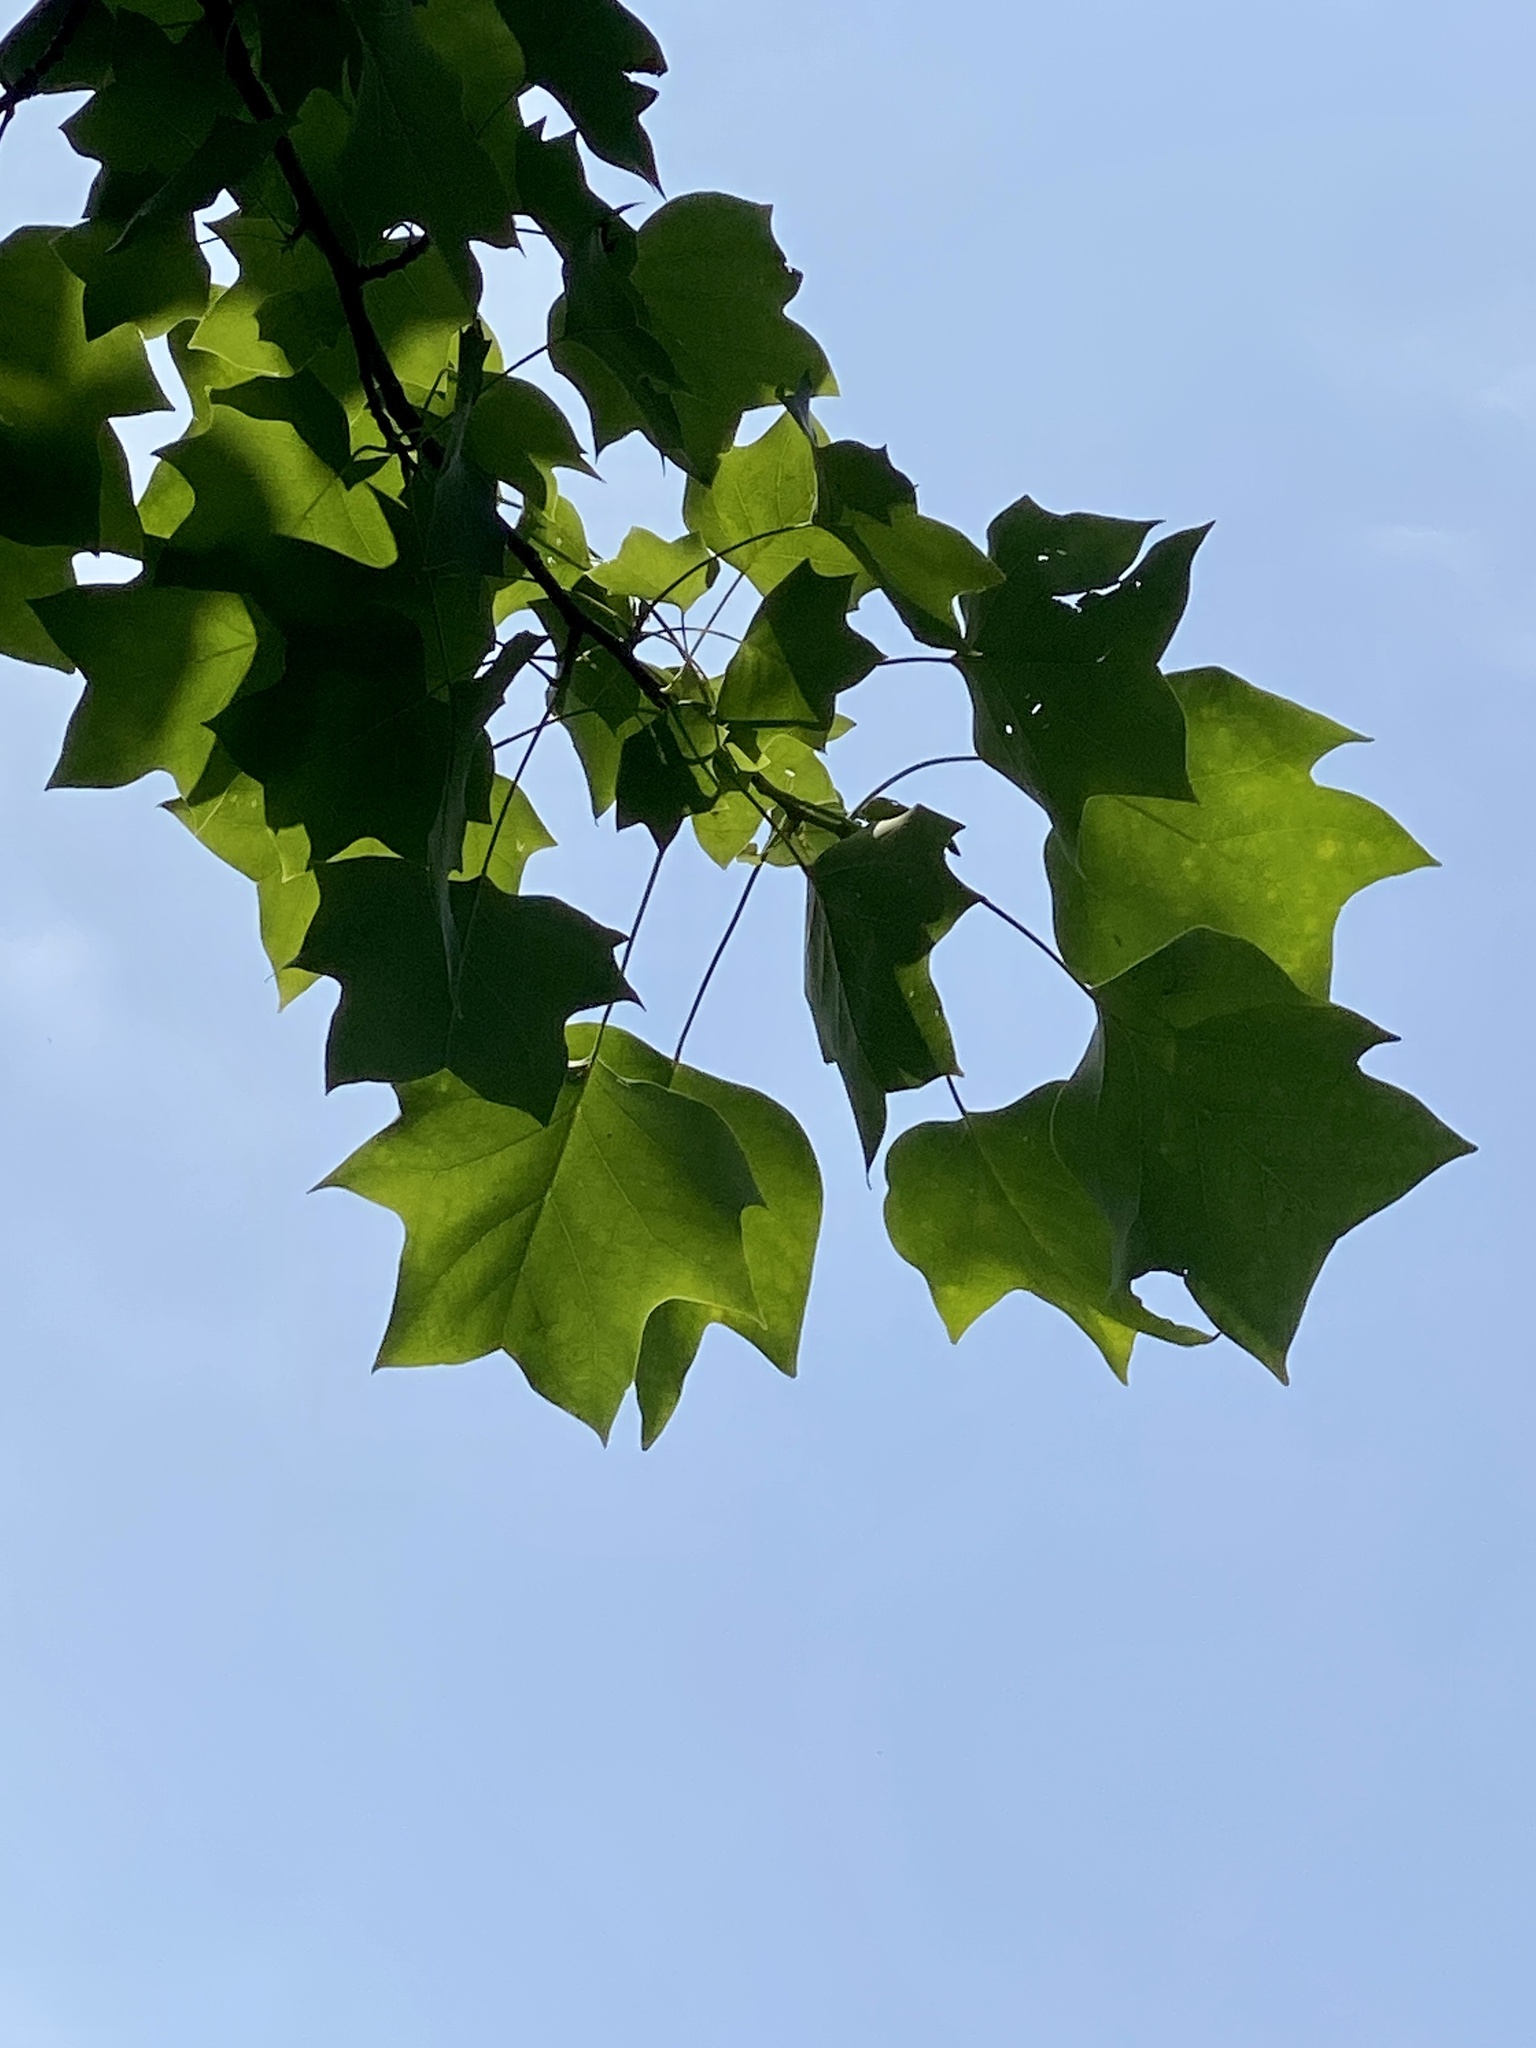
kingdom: Plantae
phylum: Tracheophyta
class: Magnoliopsida
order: Magnoliales
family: Magnoliaceae
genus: Liriodendron
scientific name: Liriodendron tulipifera
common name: Tulip tree
